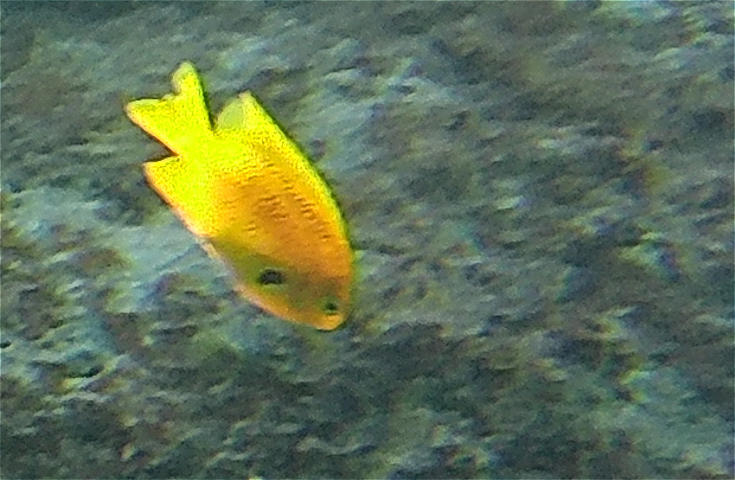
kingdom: Animalia
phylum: Chordata
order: Perciformes
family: Pomacentridae
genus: Pomacentrus
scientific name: Pomacentrus sulfureus
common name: Sulfur damsel
